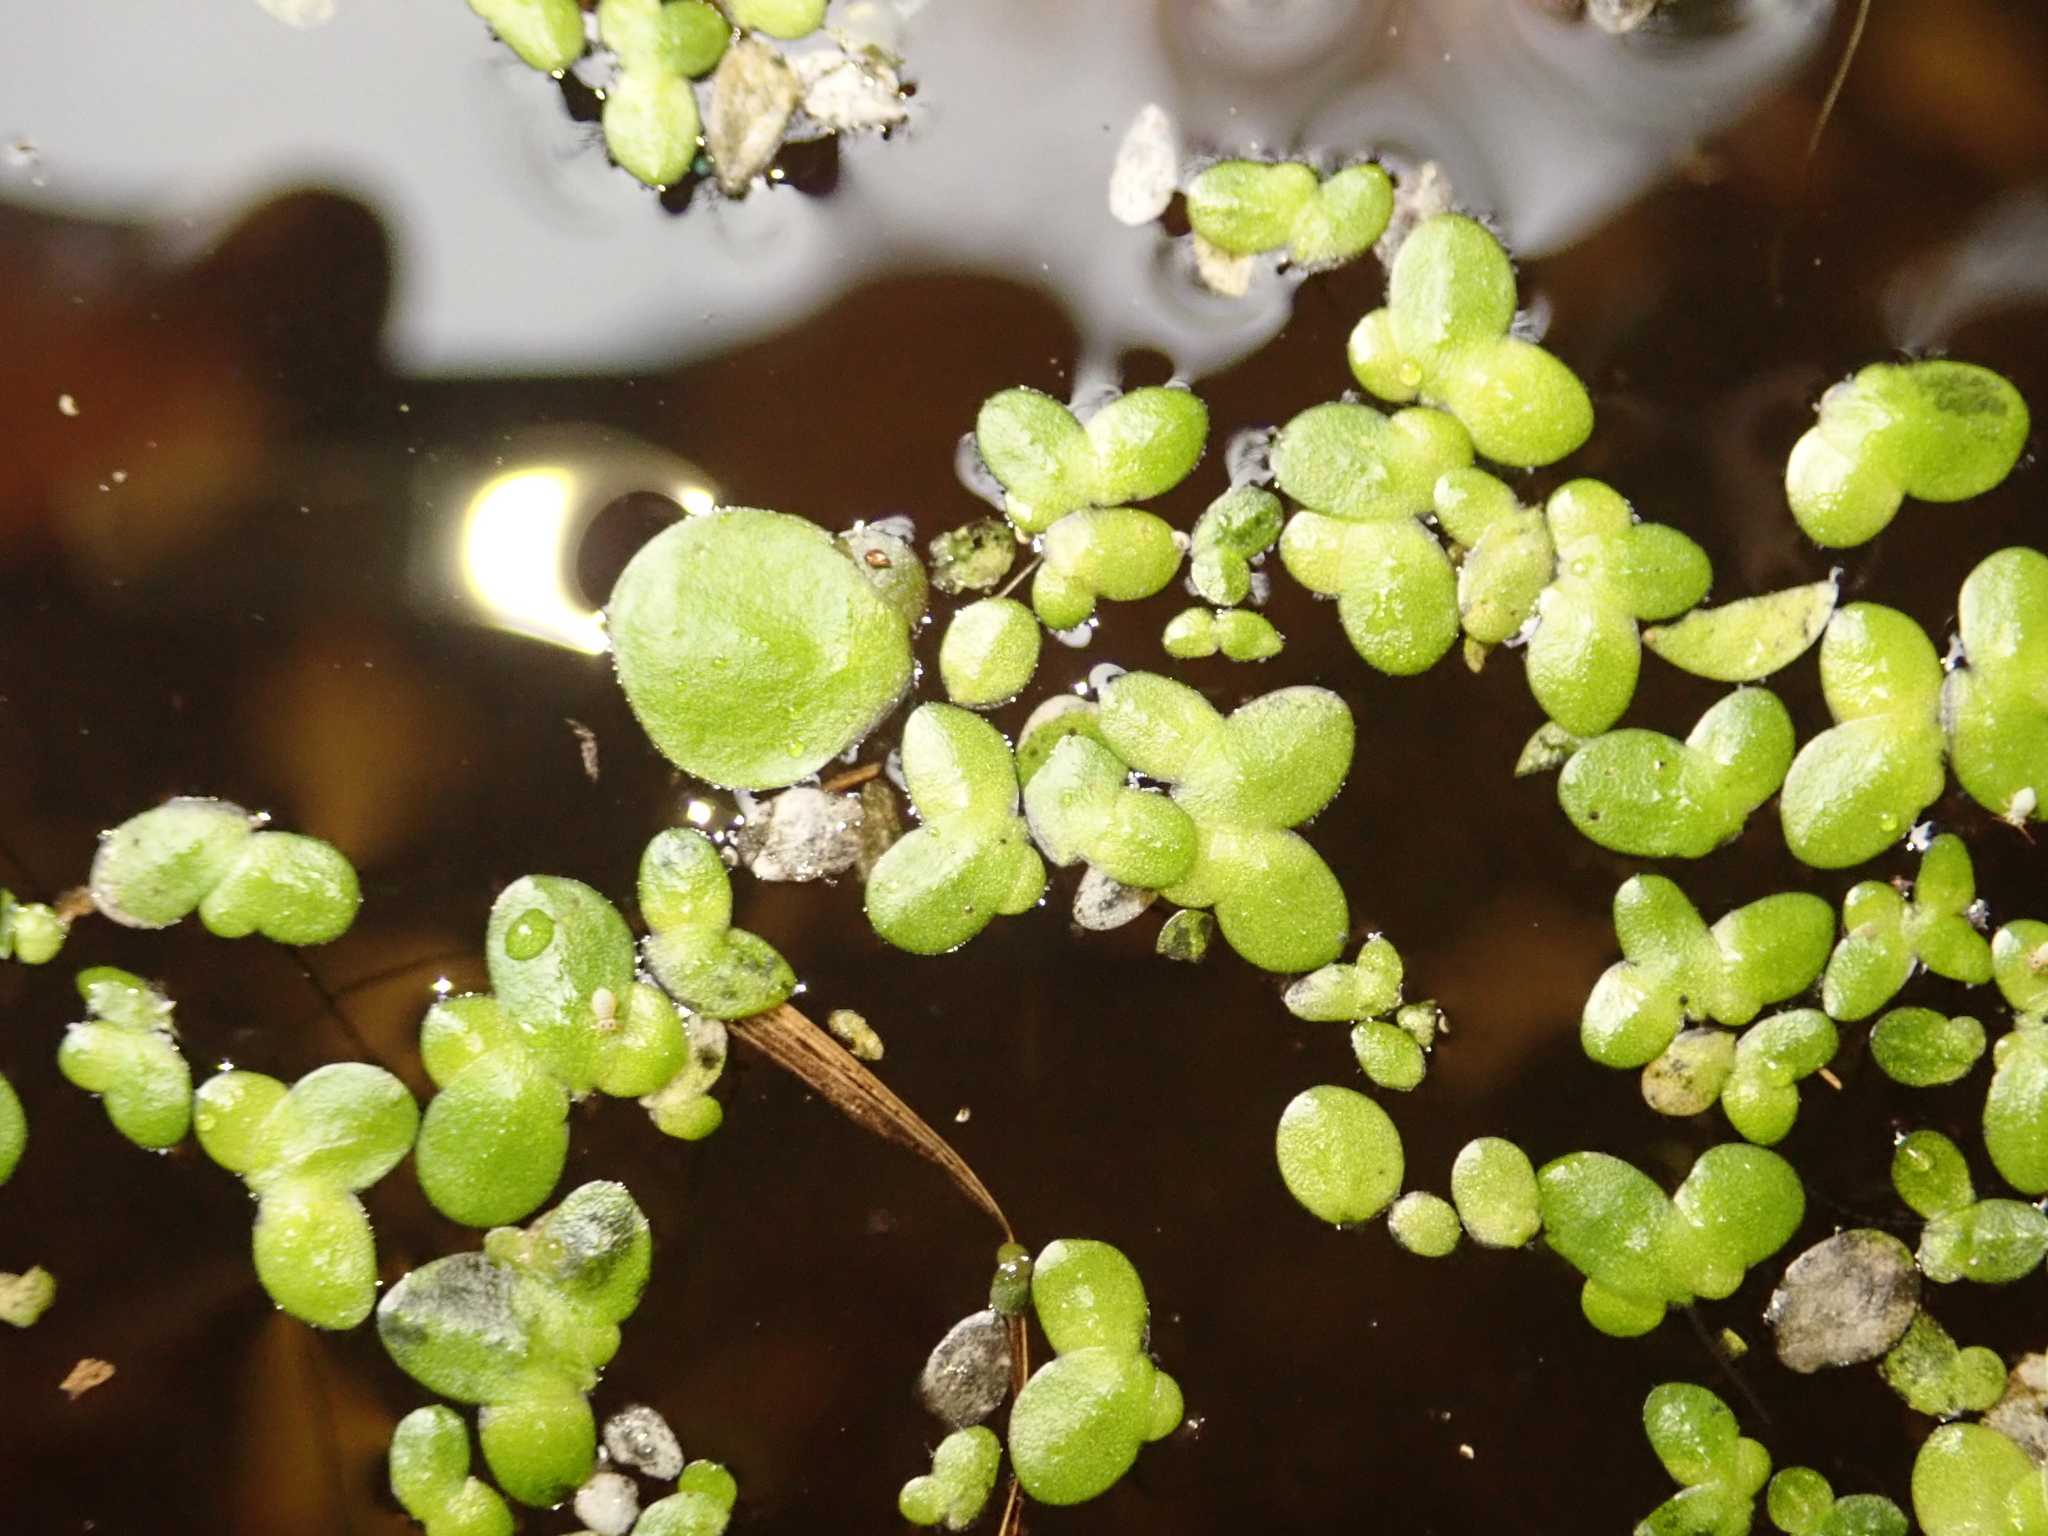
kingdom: Plantae
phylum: Tracheophyta
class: Liliopsida
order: Alismatales
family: Araceae
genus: Lemna
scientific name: Lemna minor
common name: Common duckweed
